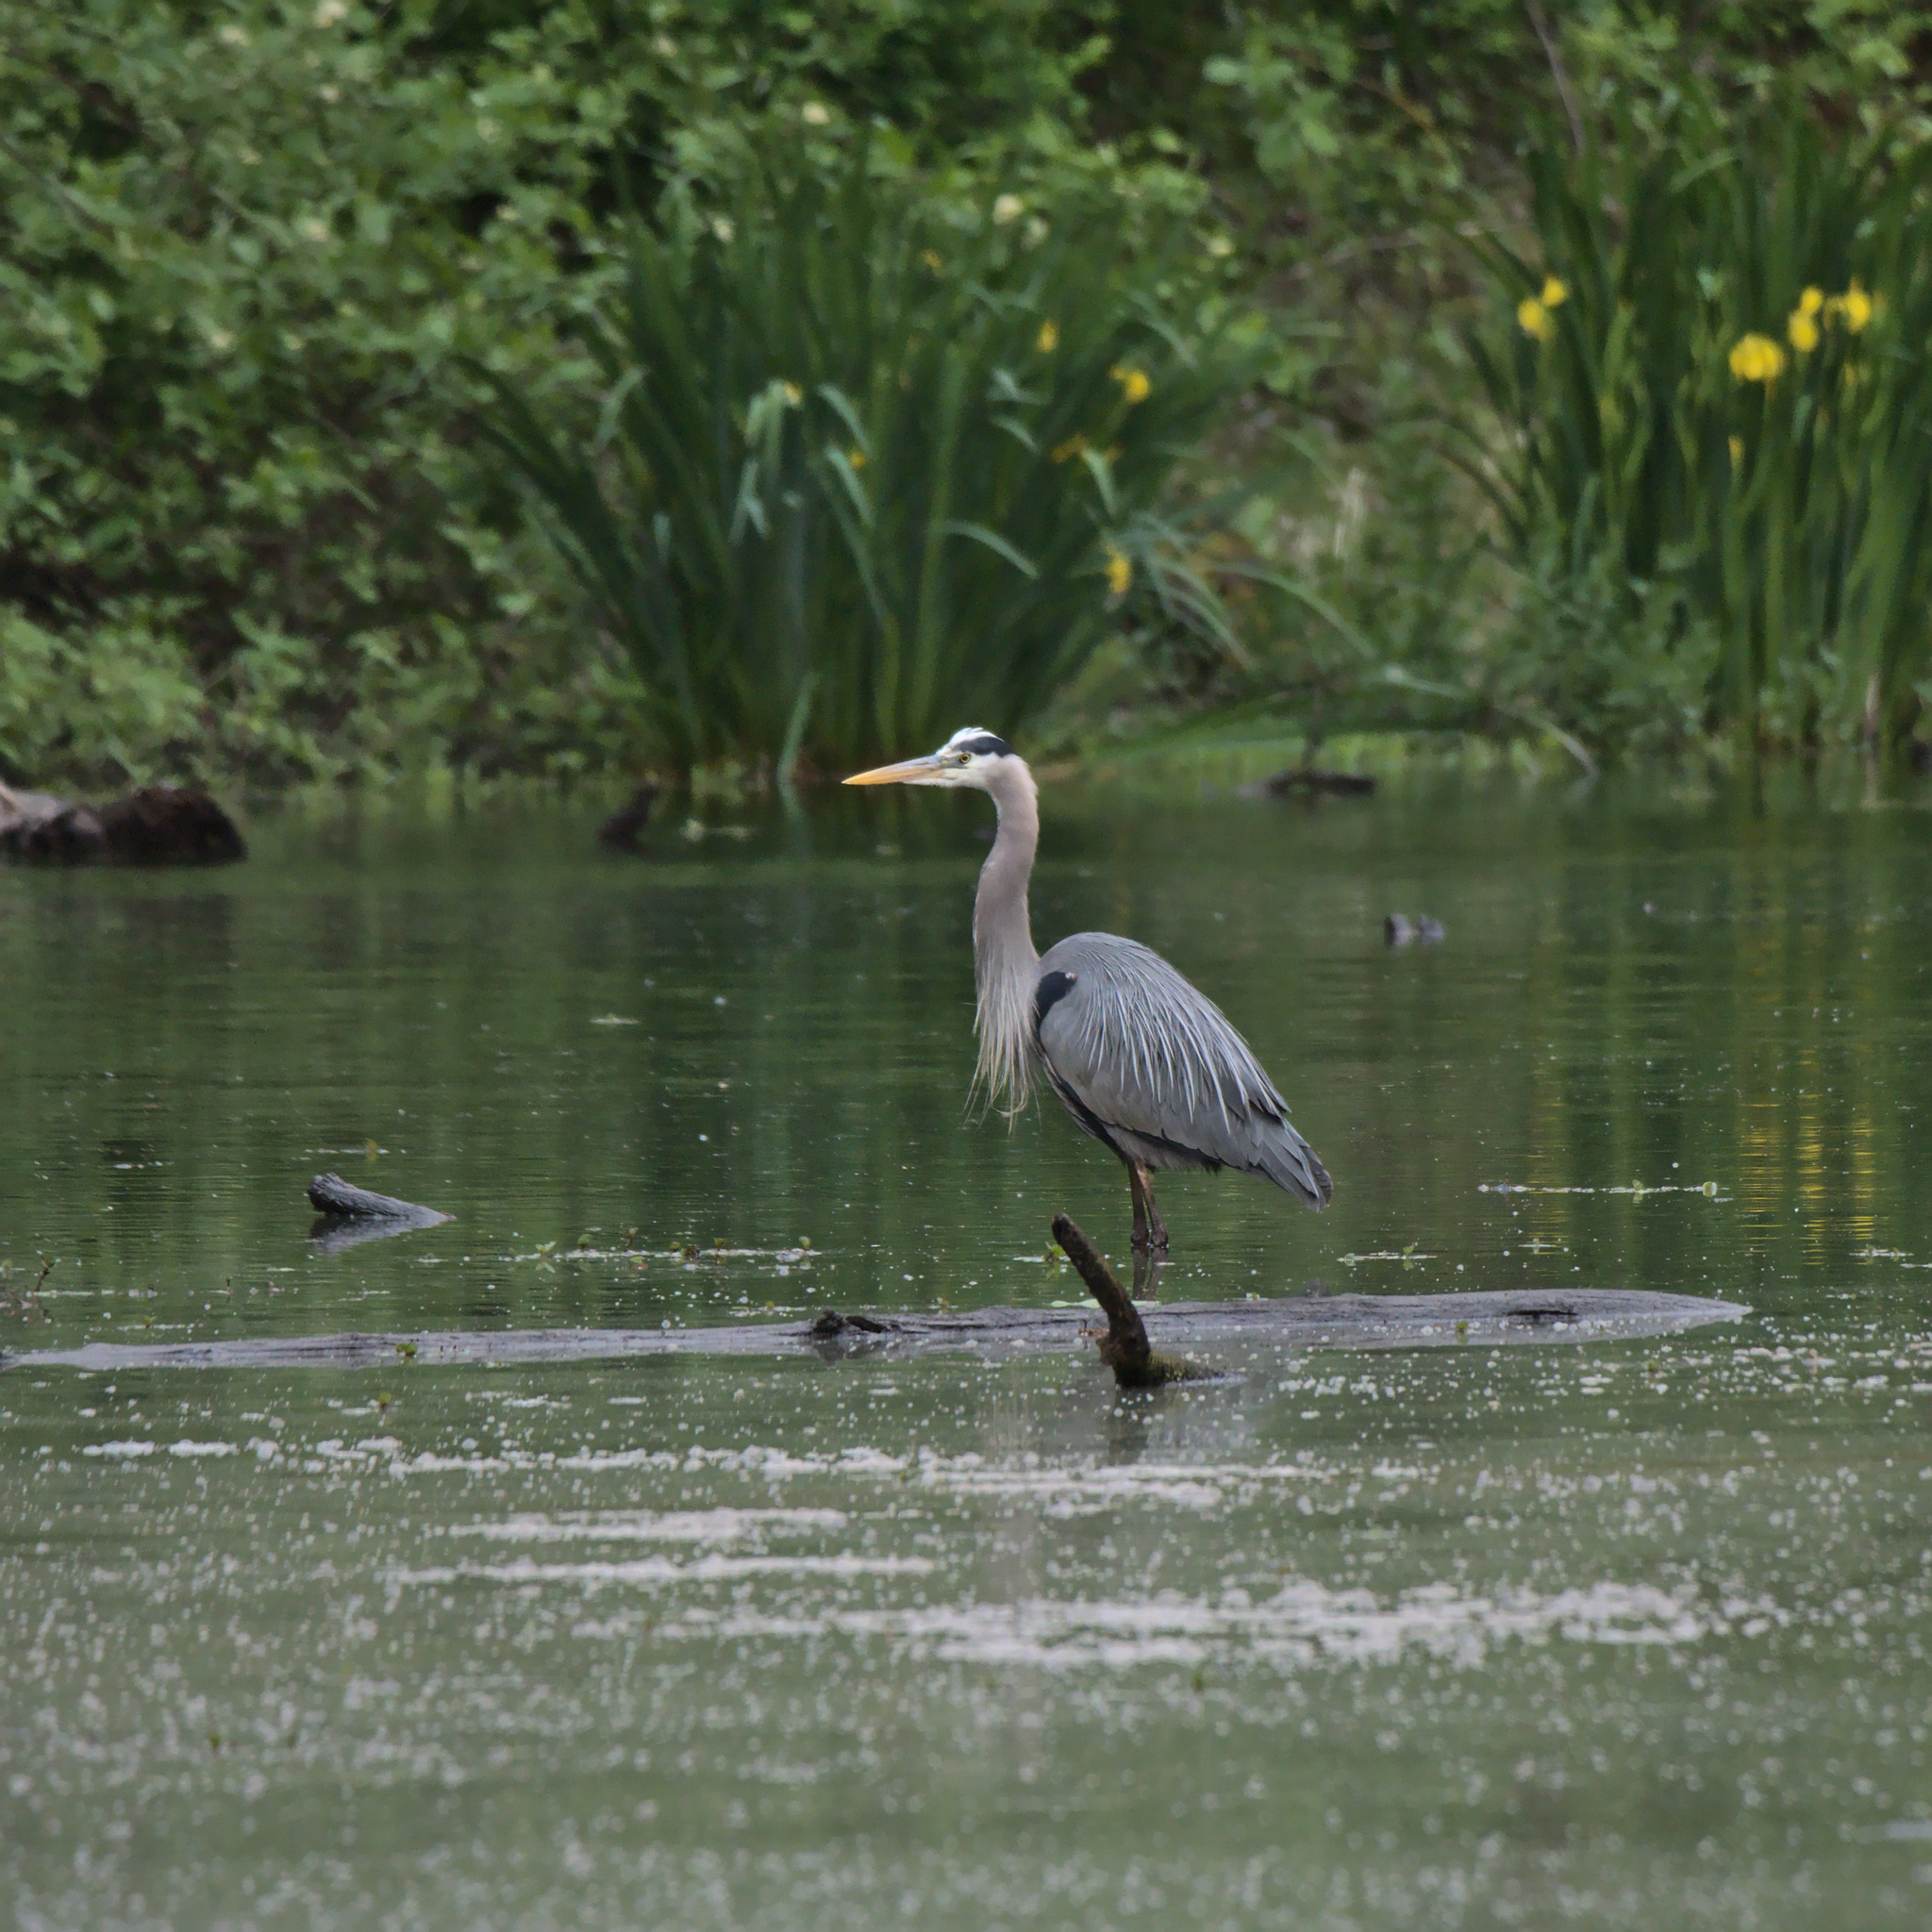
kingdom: Animalia
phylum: Chordata
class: Aves
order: Pelecaniformes
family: Ardeidae
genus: Ardea
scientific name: Ardea herodias
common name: Great blue heron
